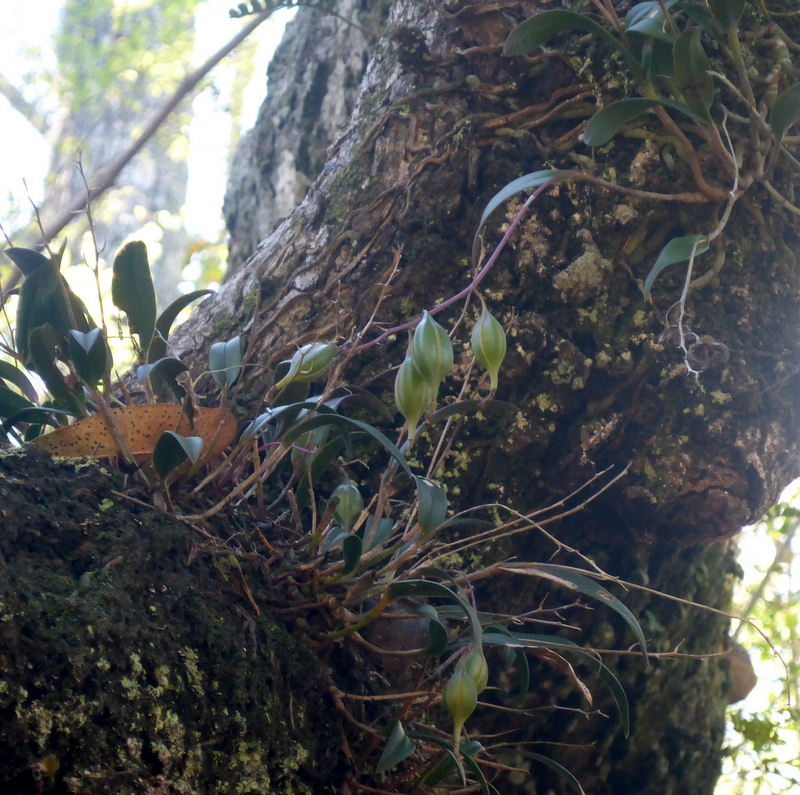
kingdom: Plantae
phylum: Tracheophyta
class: Liliopsida
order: Asparagales
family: Orchidaceae
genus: Epidendrum
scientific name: Epidendrum conopseum
